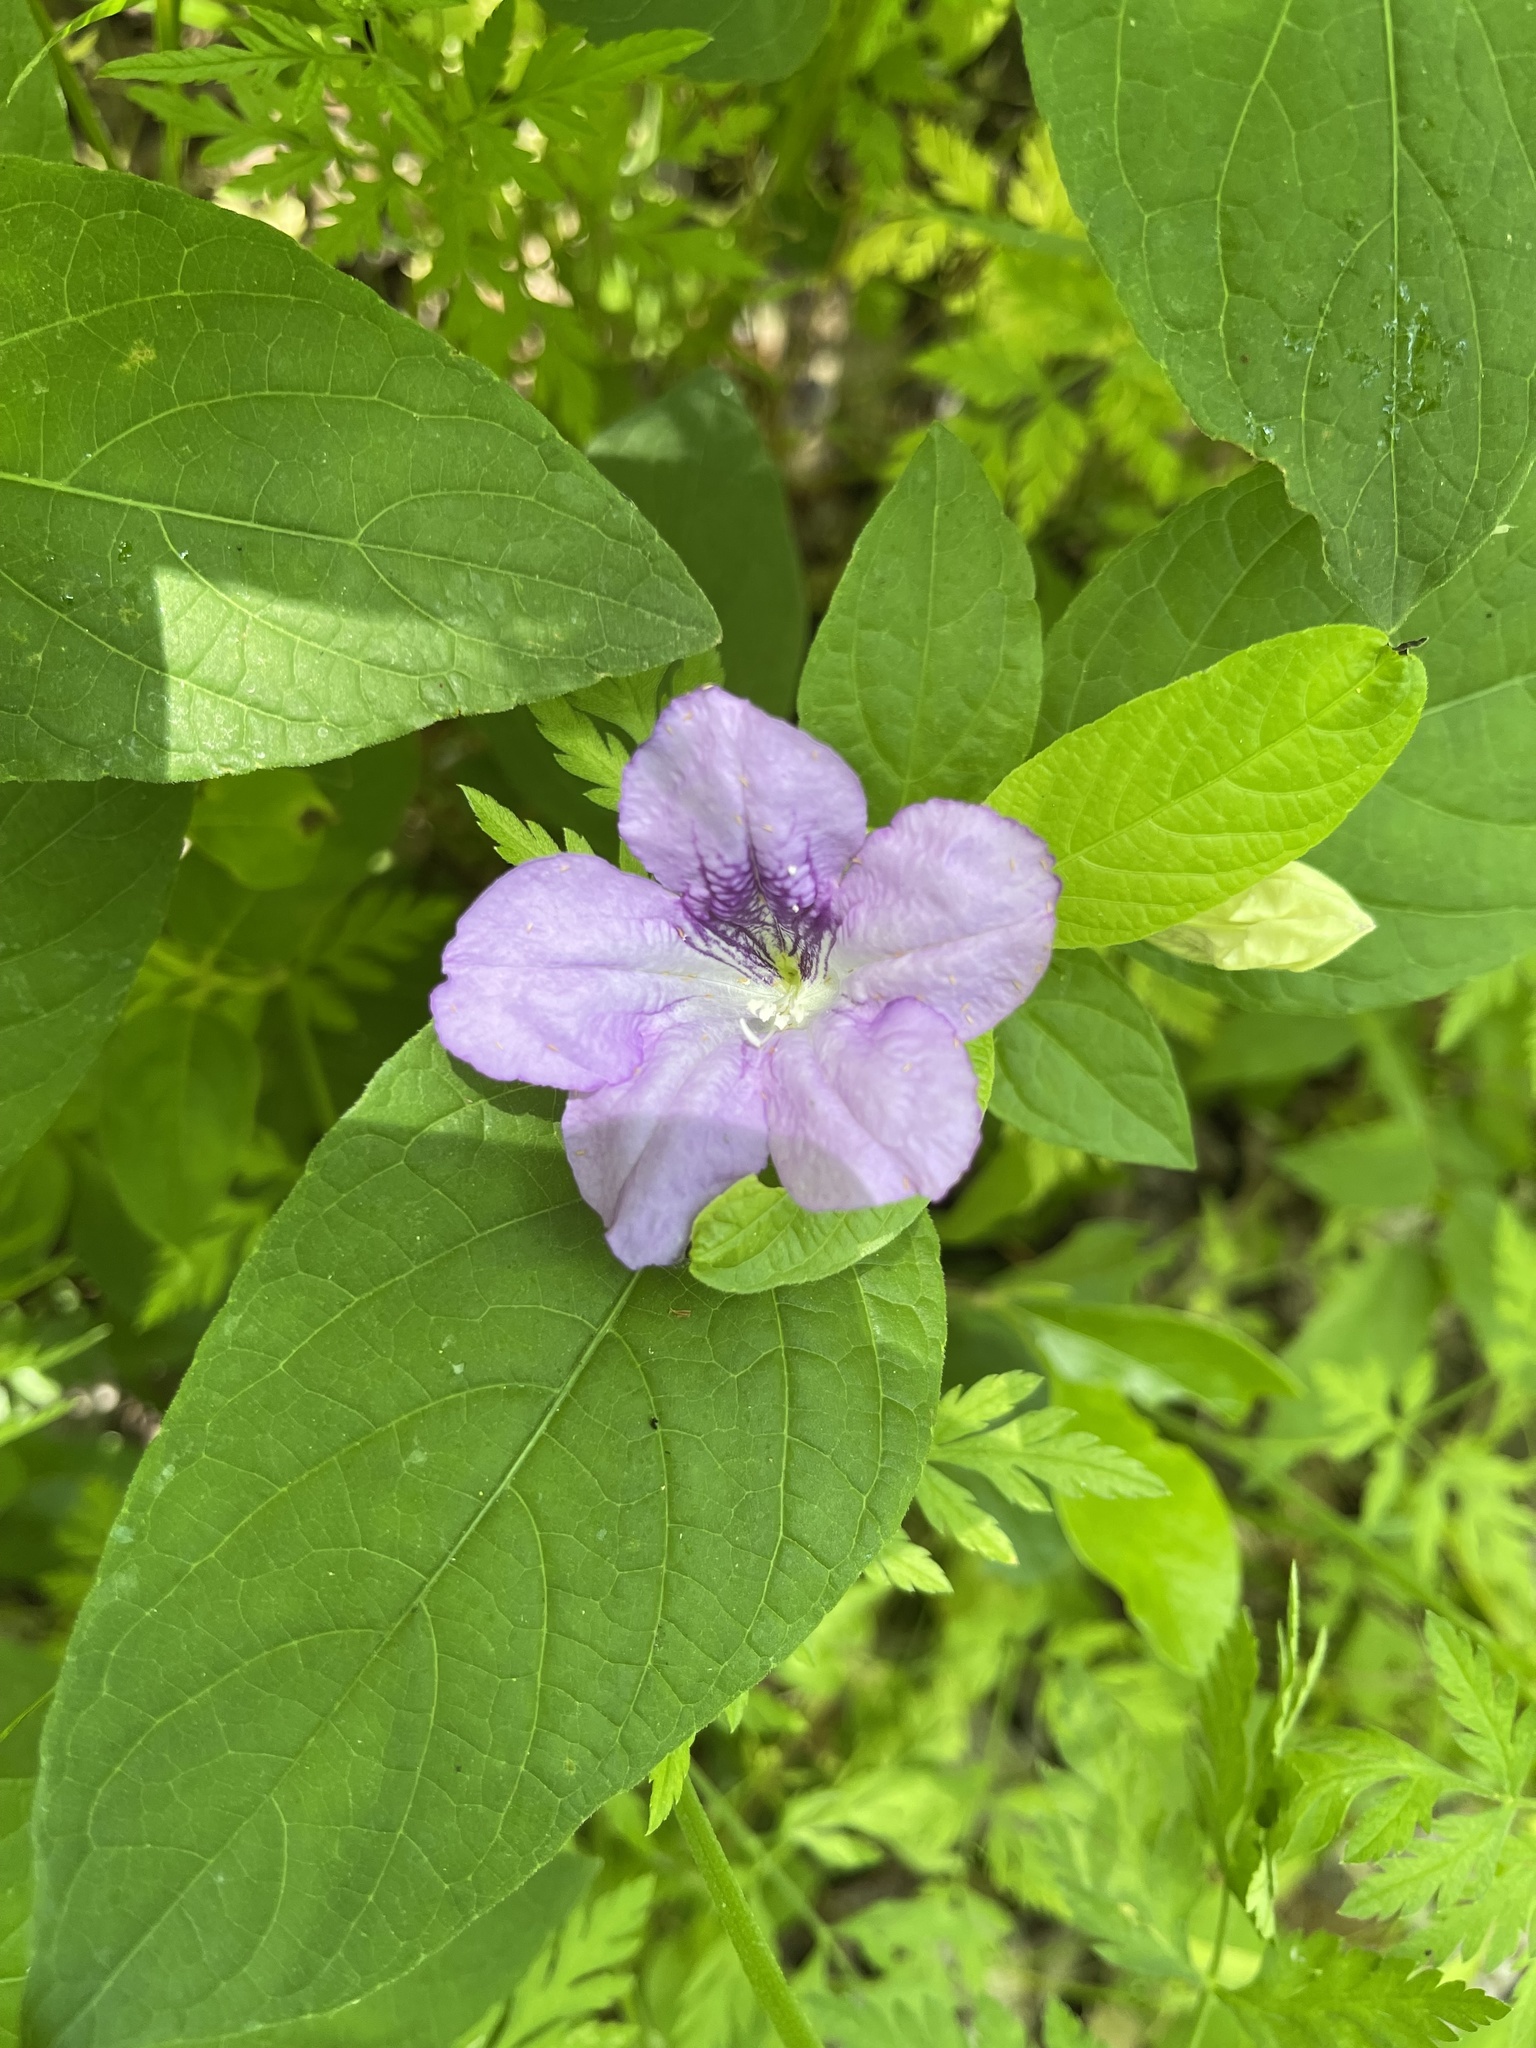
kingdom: Plantae
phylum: Tracheophyta
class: Magnoliopsida
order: Lamiales
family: Acanthaceae
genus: Ruellia
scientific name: Ruellia strepens
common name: Limestone wild petunia
